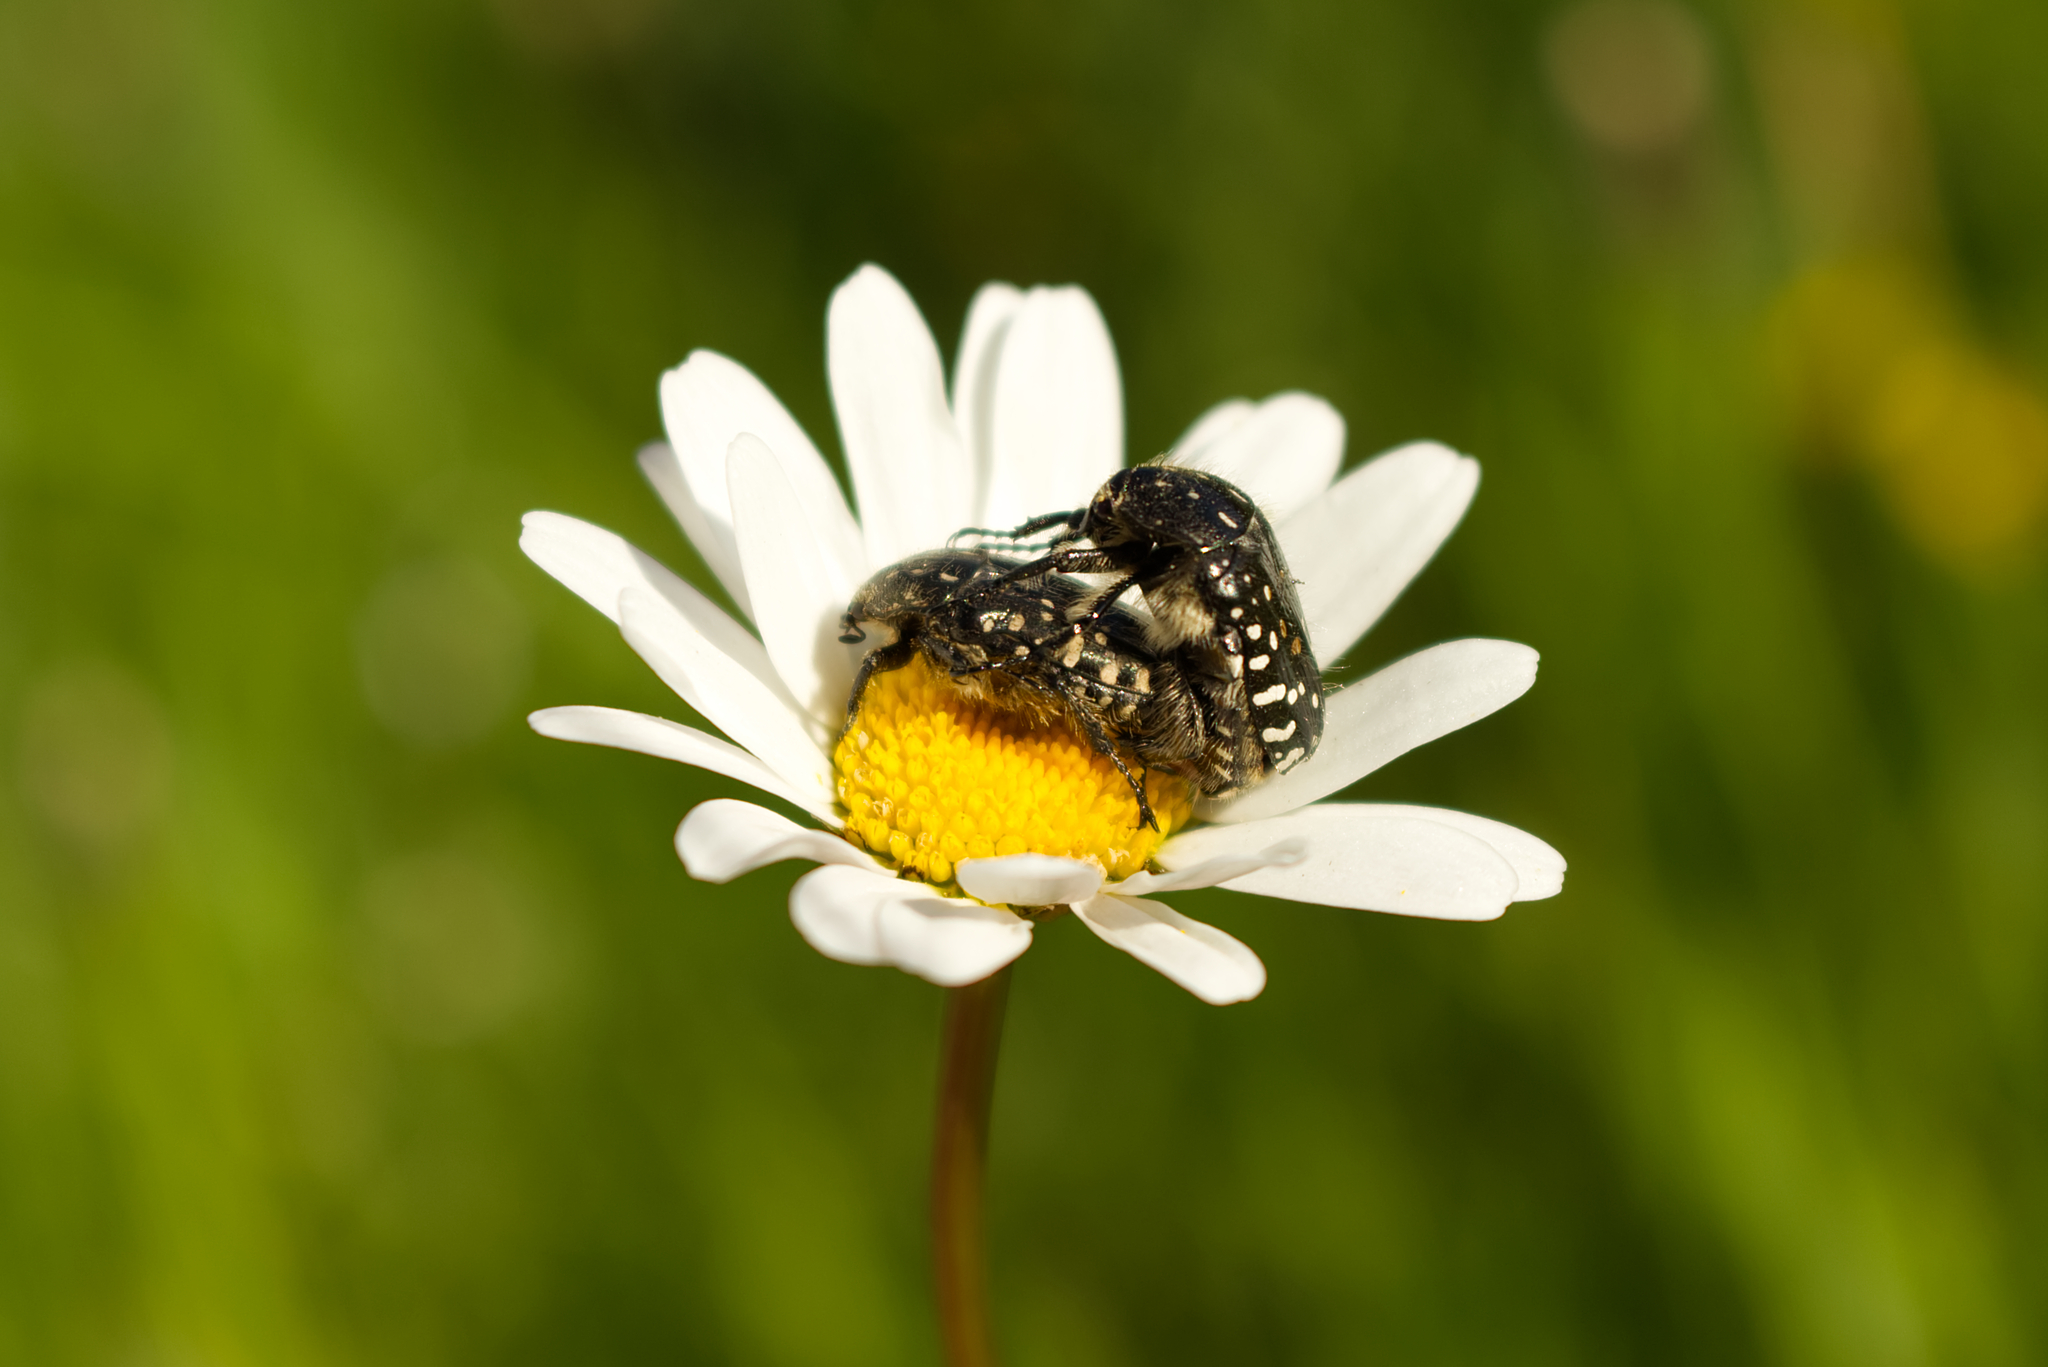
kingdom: Animalia
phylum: Arthropoda
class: Insecta
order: Coleoptera
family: Scarabaeidae
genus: Oxythyrea
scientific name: Oxythyrea funesta
